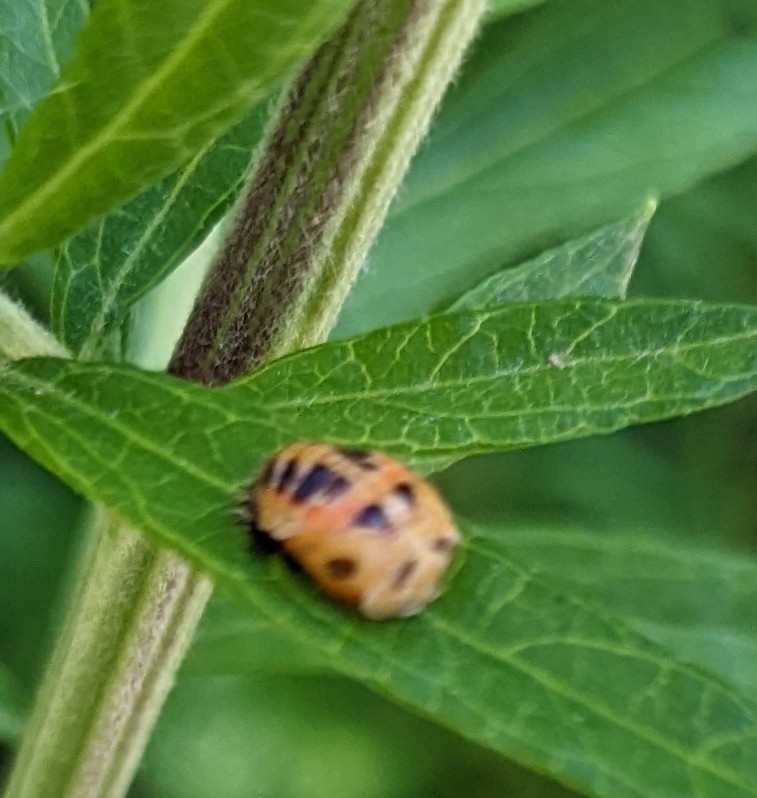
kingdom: Animalia
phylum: Arthropoda
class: Insecta
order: Coleoptera
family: Coccinellidae
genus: Harmonia
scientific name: Harmonia axyridis
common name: Harlequin ladybird
